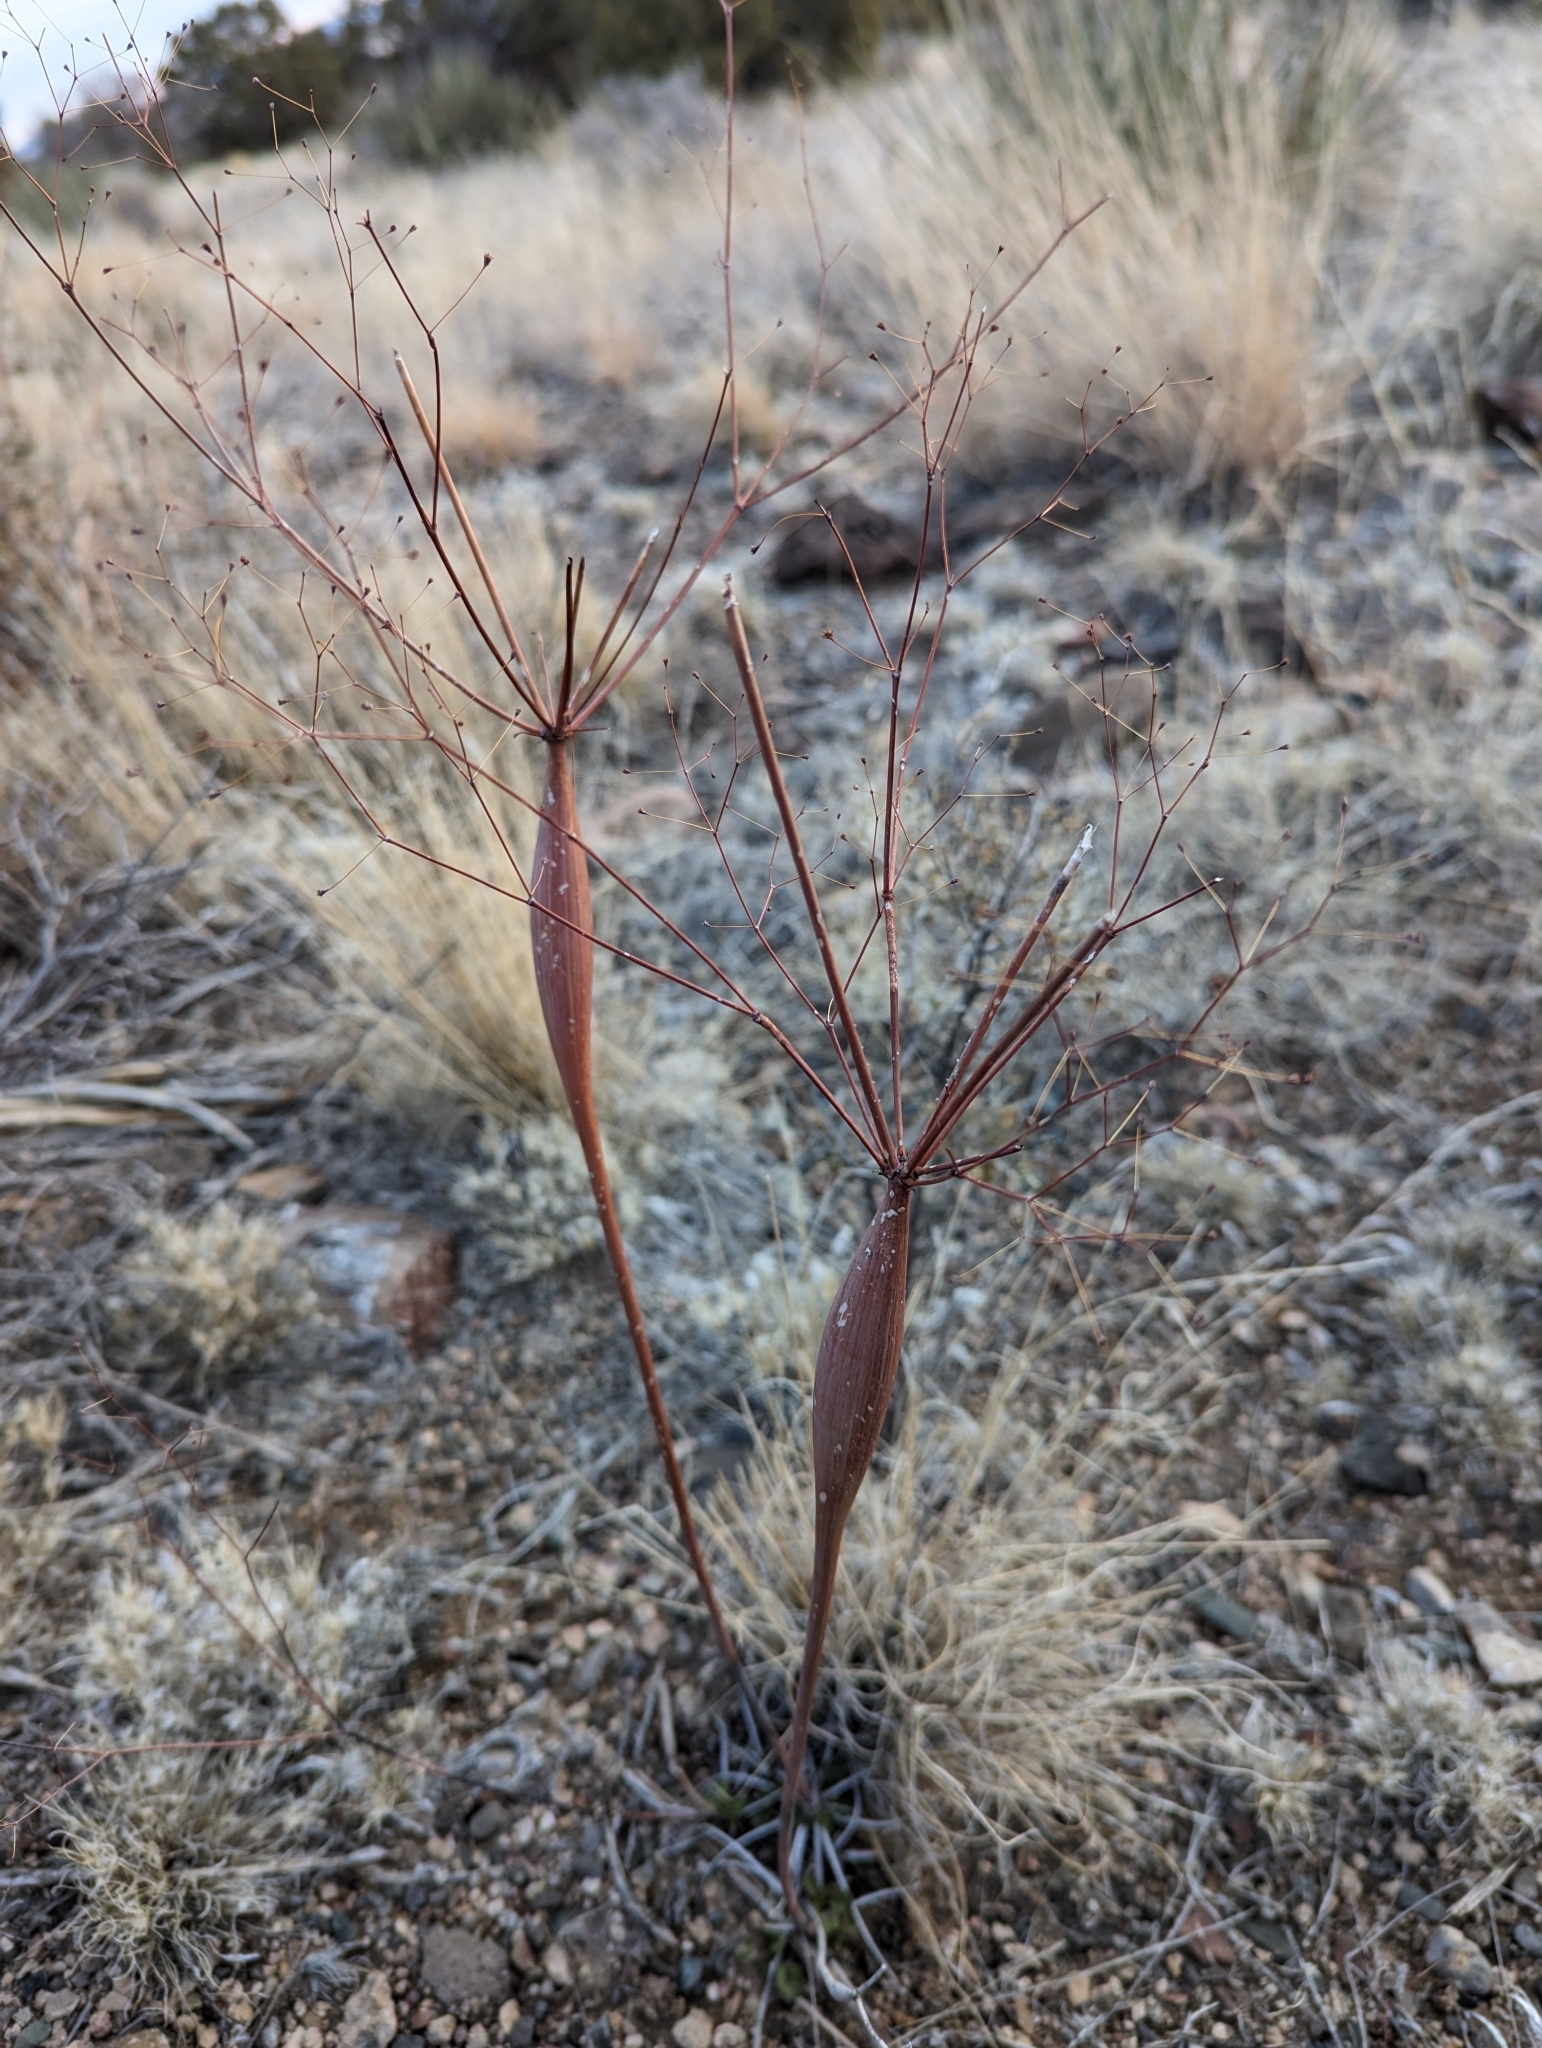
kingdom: Plantae
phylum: Tracheophyta
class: Magnoliopsida
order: Caryophyllales
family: Polygonaceae
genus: Eriogonum
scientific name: Eriogonum inflatum
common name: Desert trumpet
